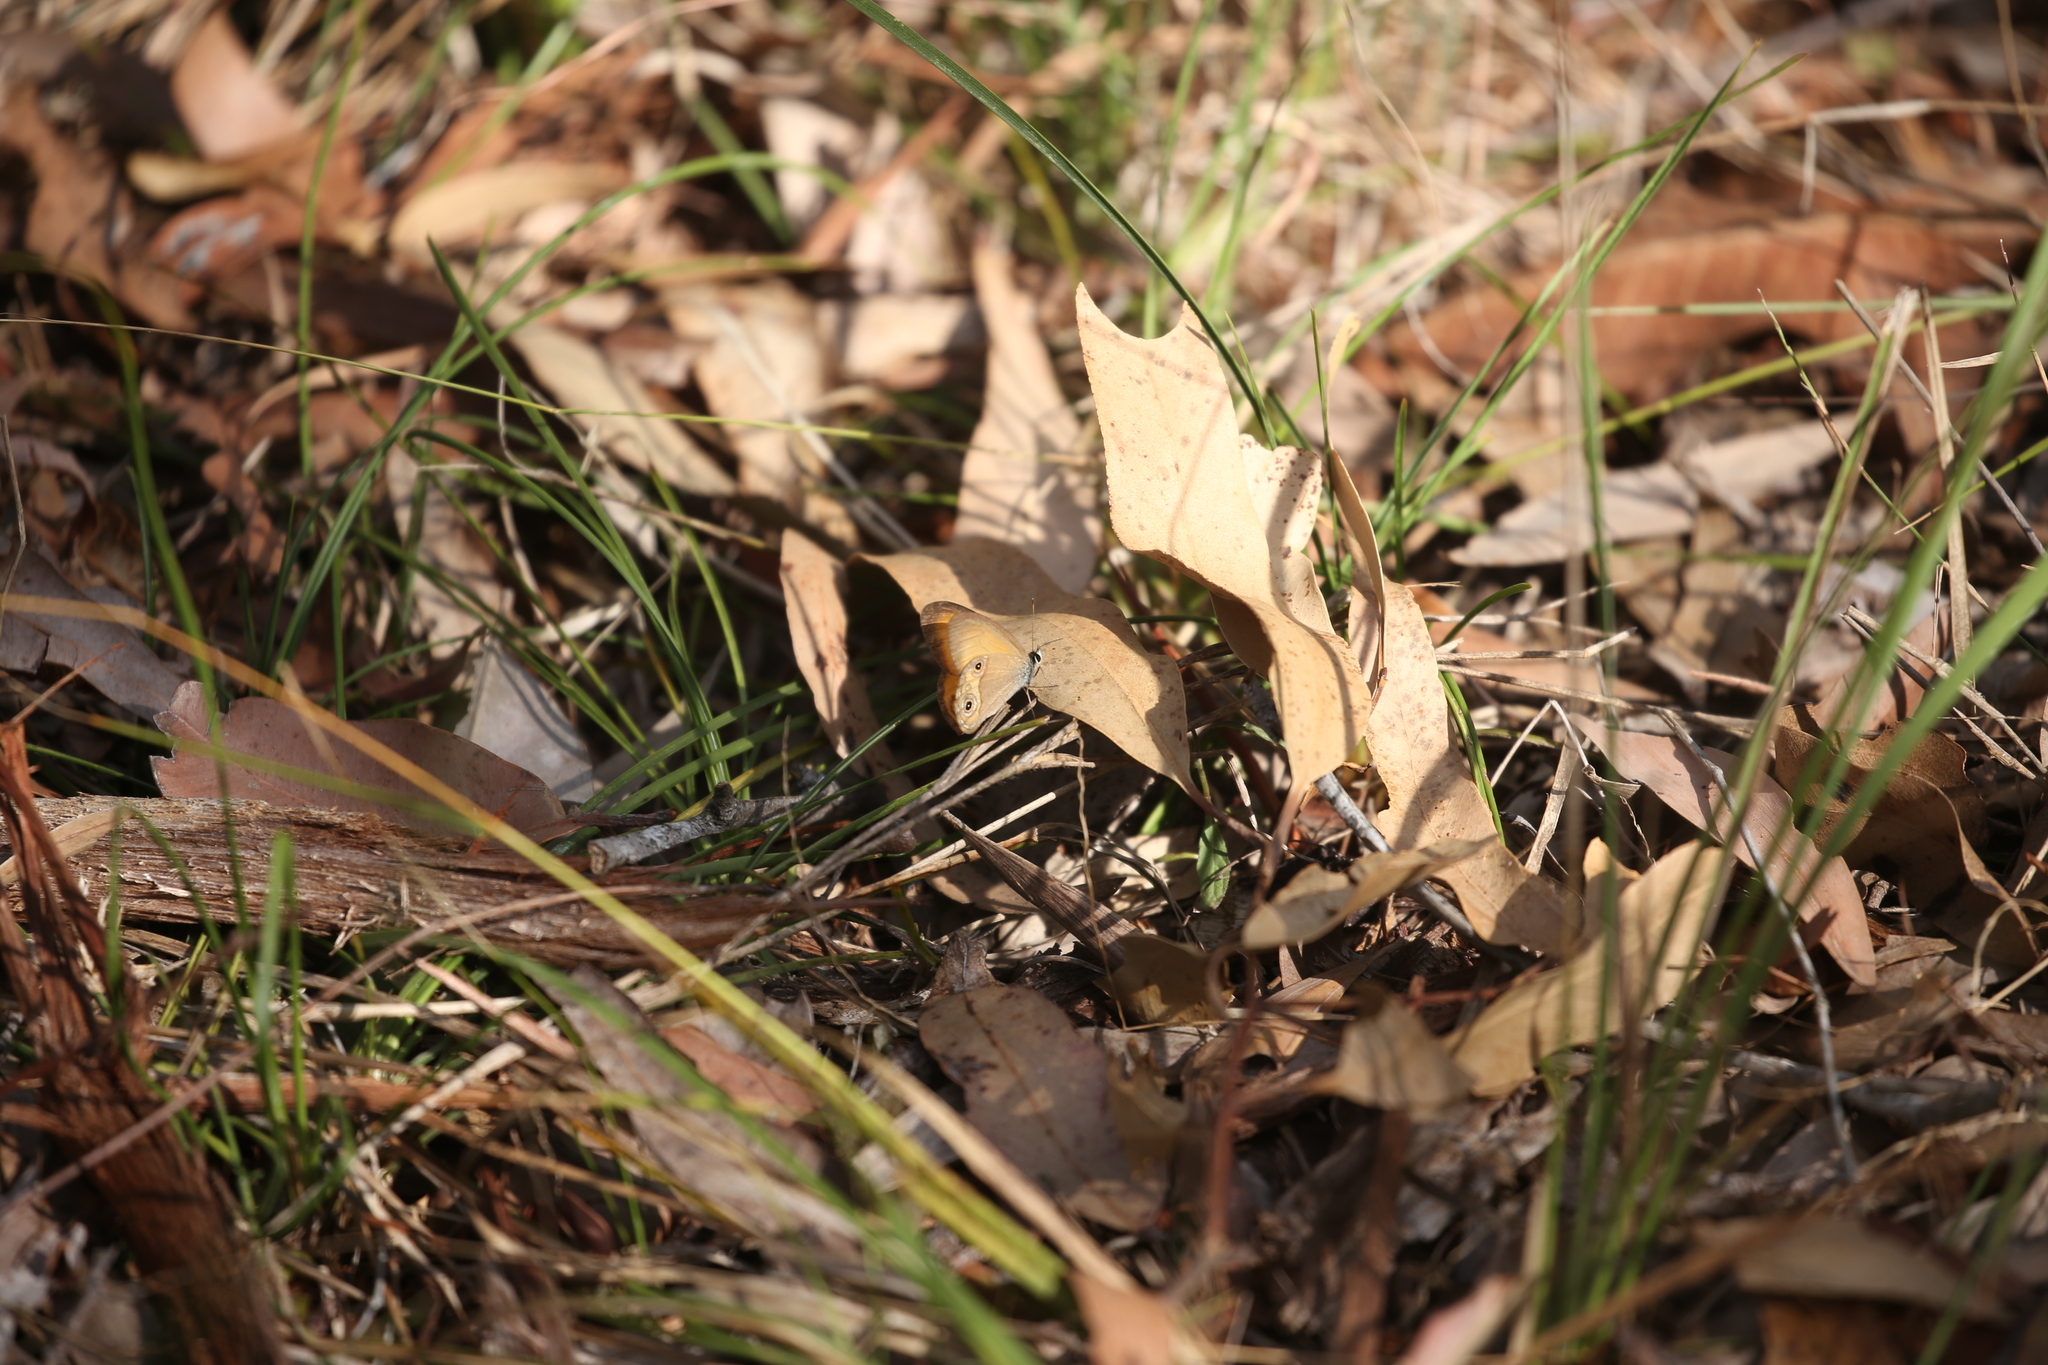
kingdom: Animalia
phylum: Arthropoda
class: Insecta
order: Lepidoptera
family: Nymphalidae
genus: Hypocysta
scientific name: Hypocysta adiante
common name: Orange ringlet
